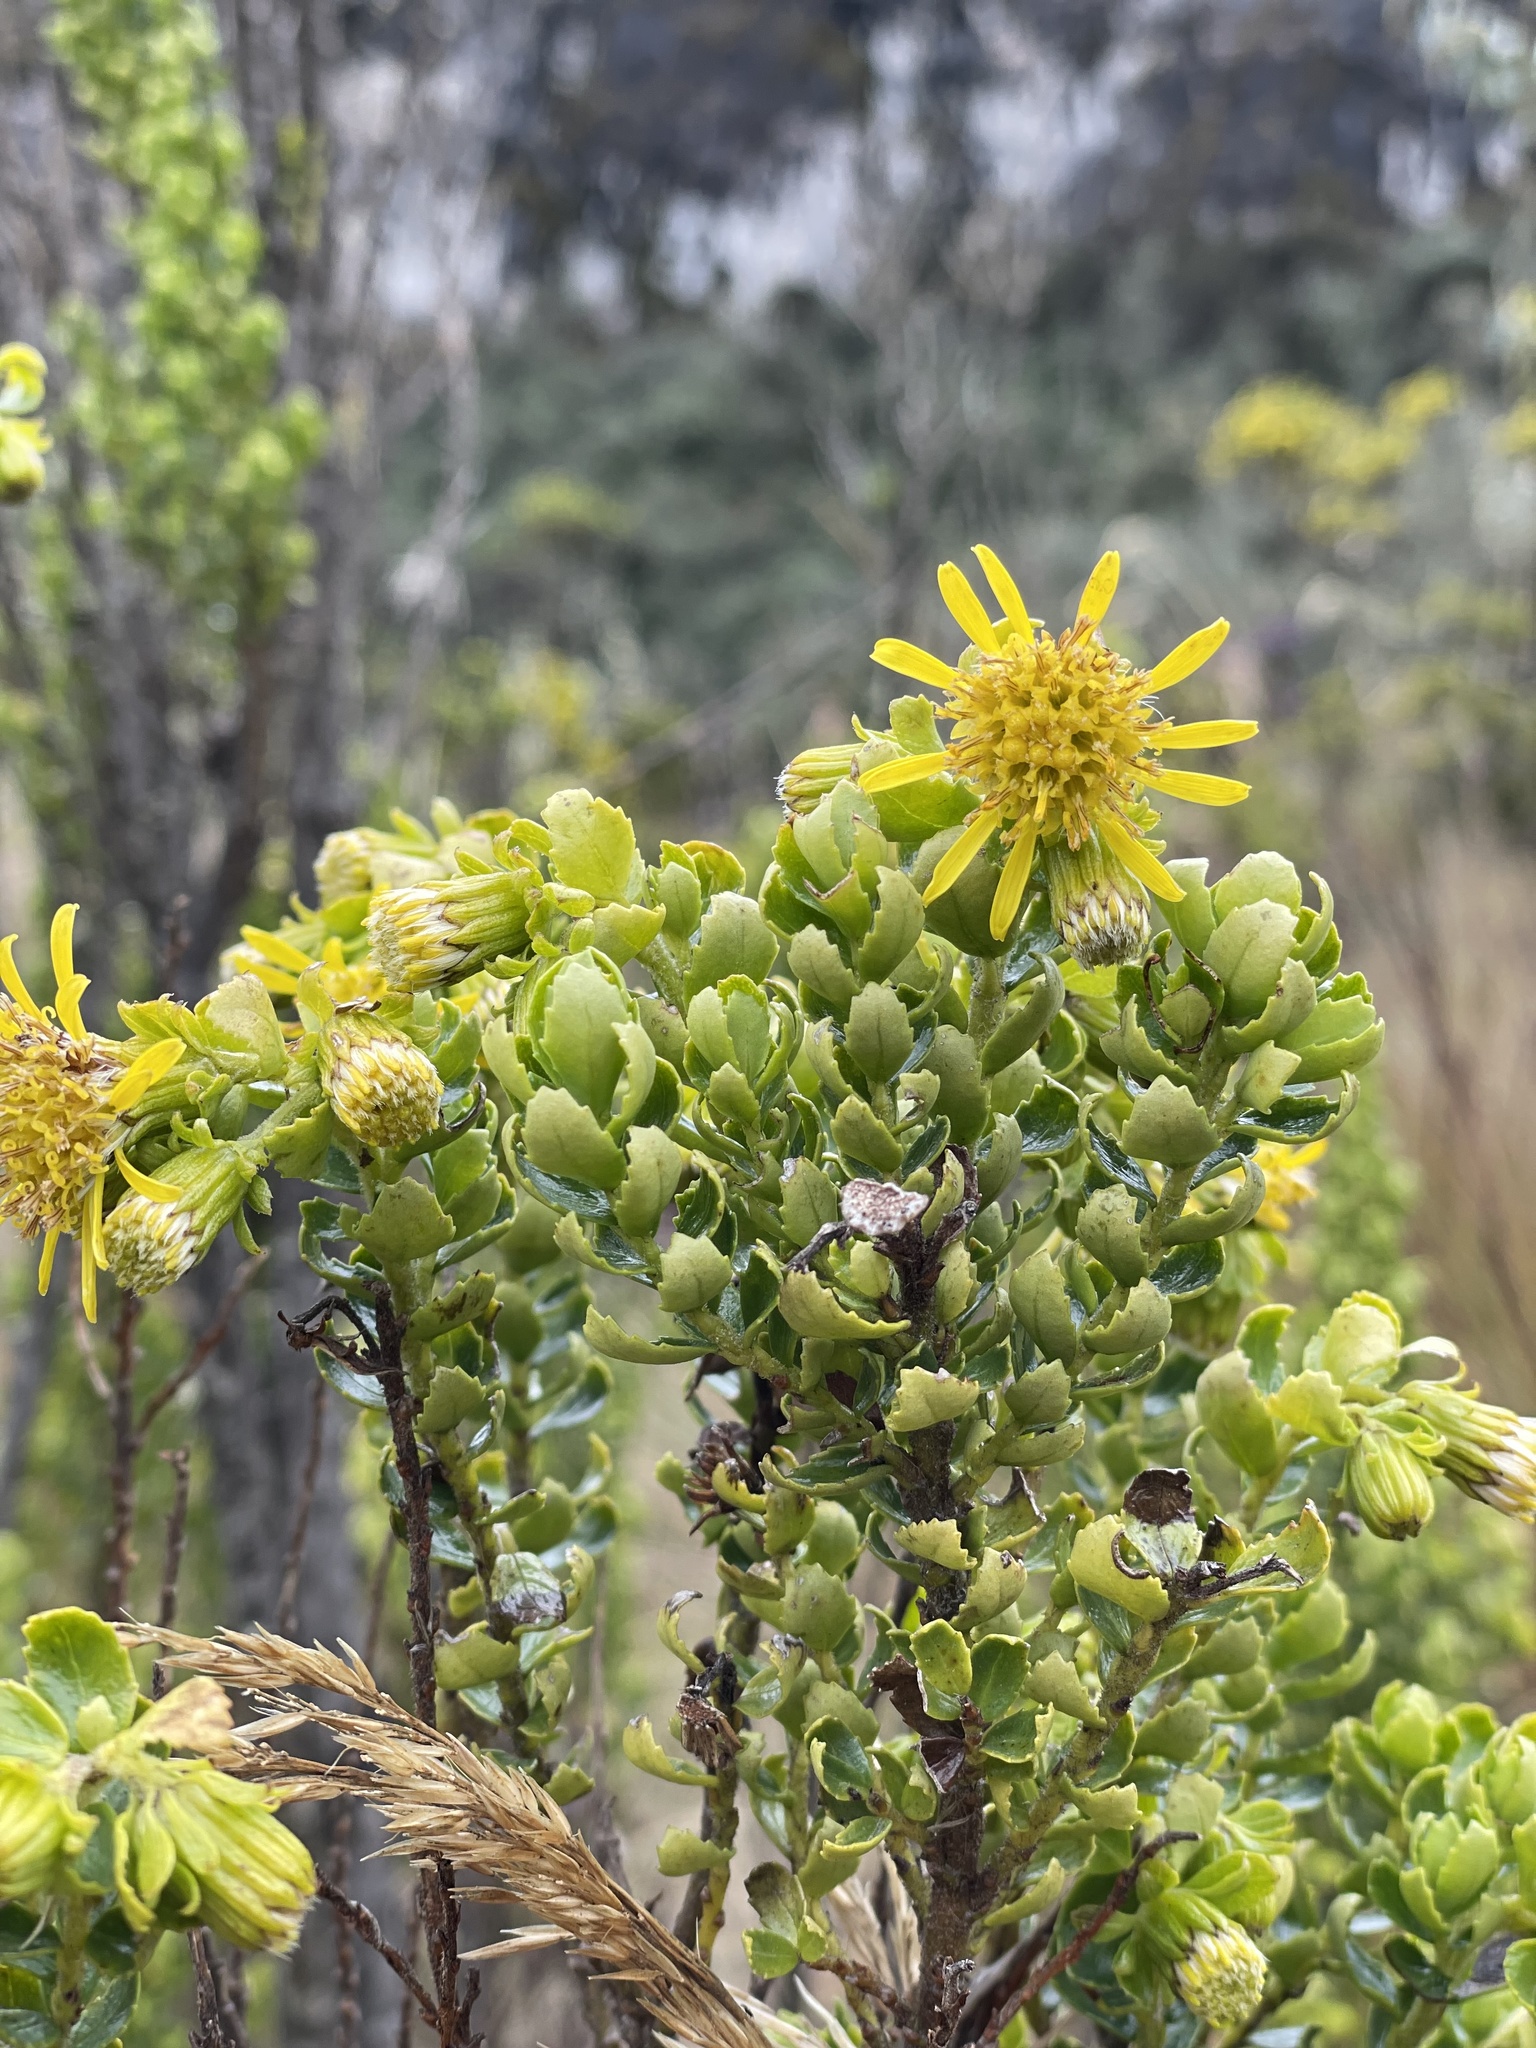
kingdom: Plantae
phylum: Tracheophyta
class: Magnoliopsida
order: Asterales
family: Asteraceae
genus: Monticalia
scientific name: Monticalia arbutifolia
